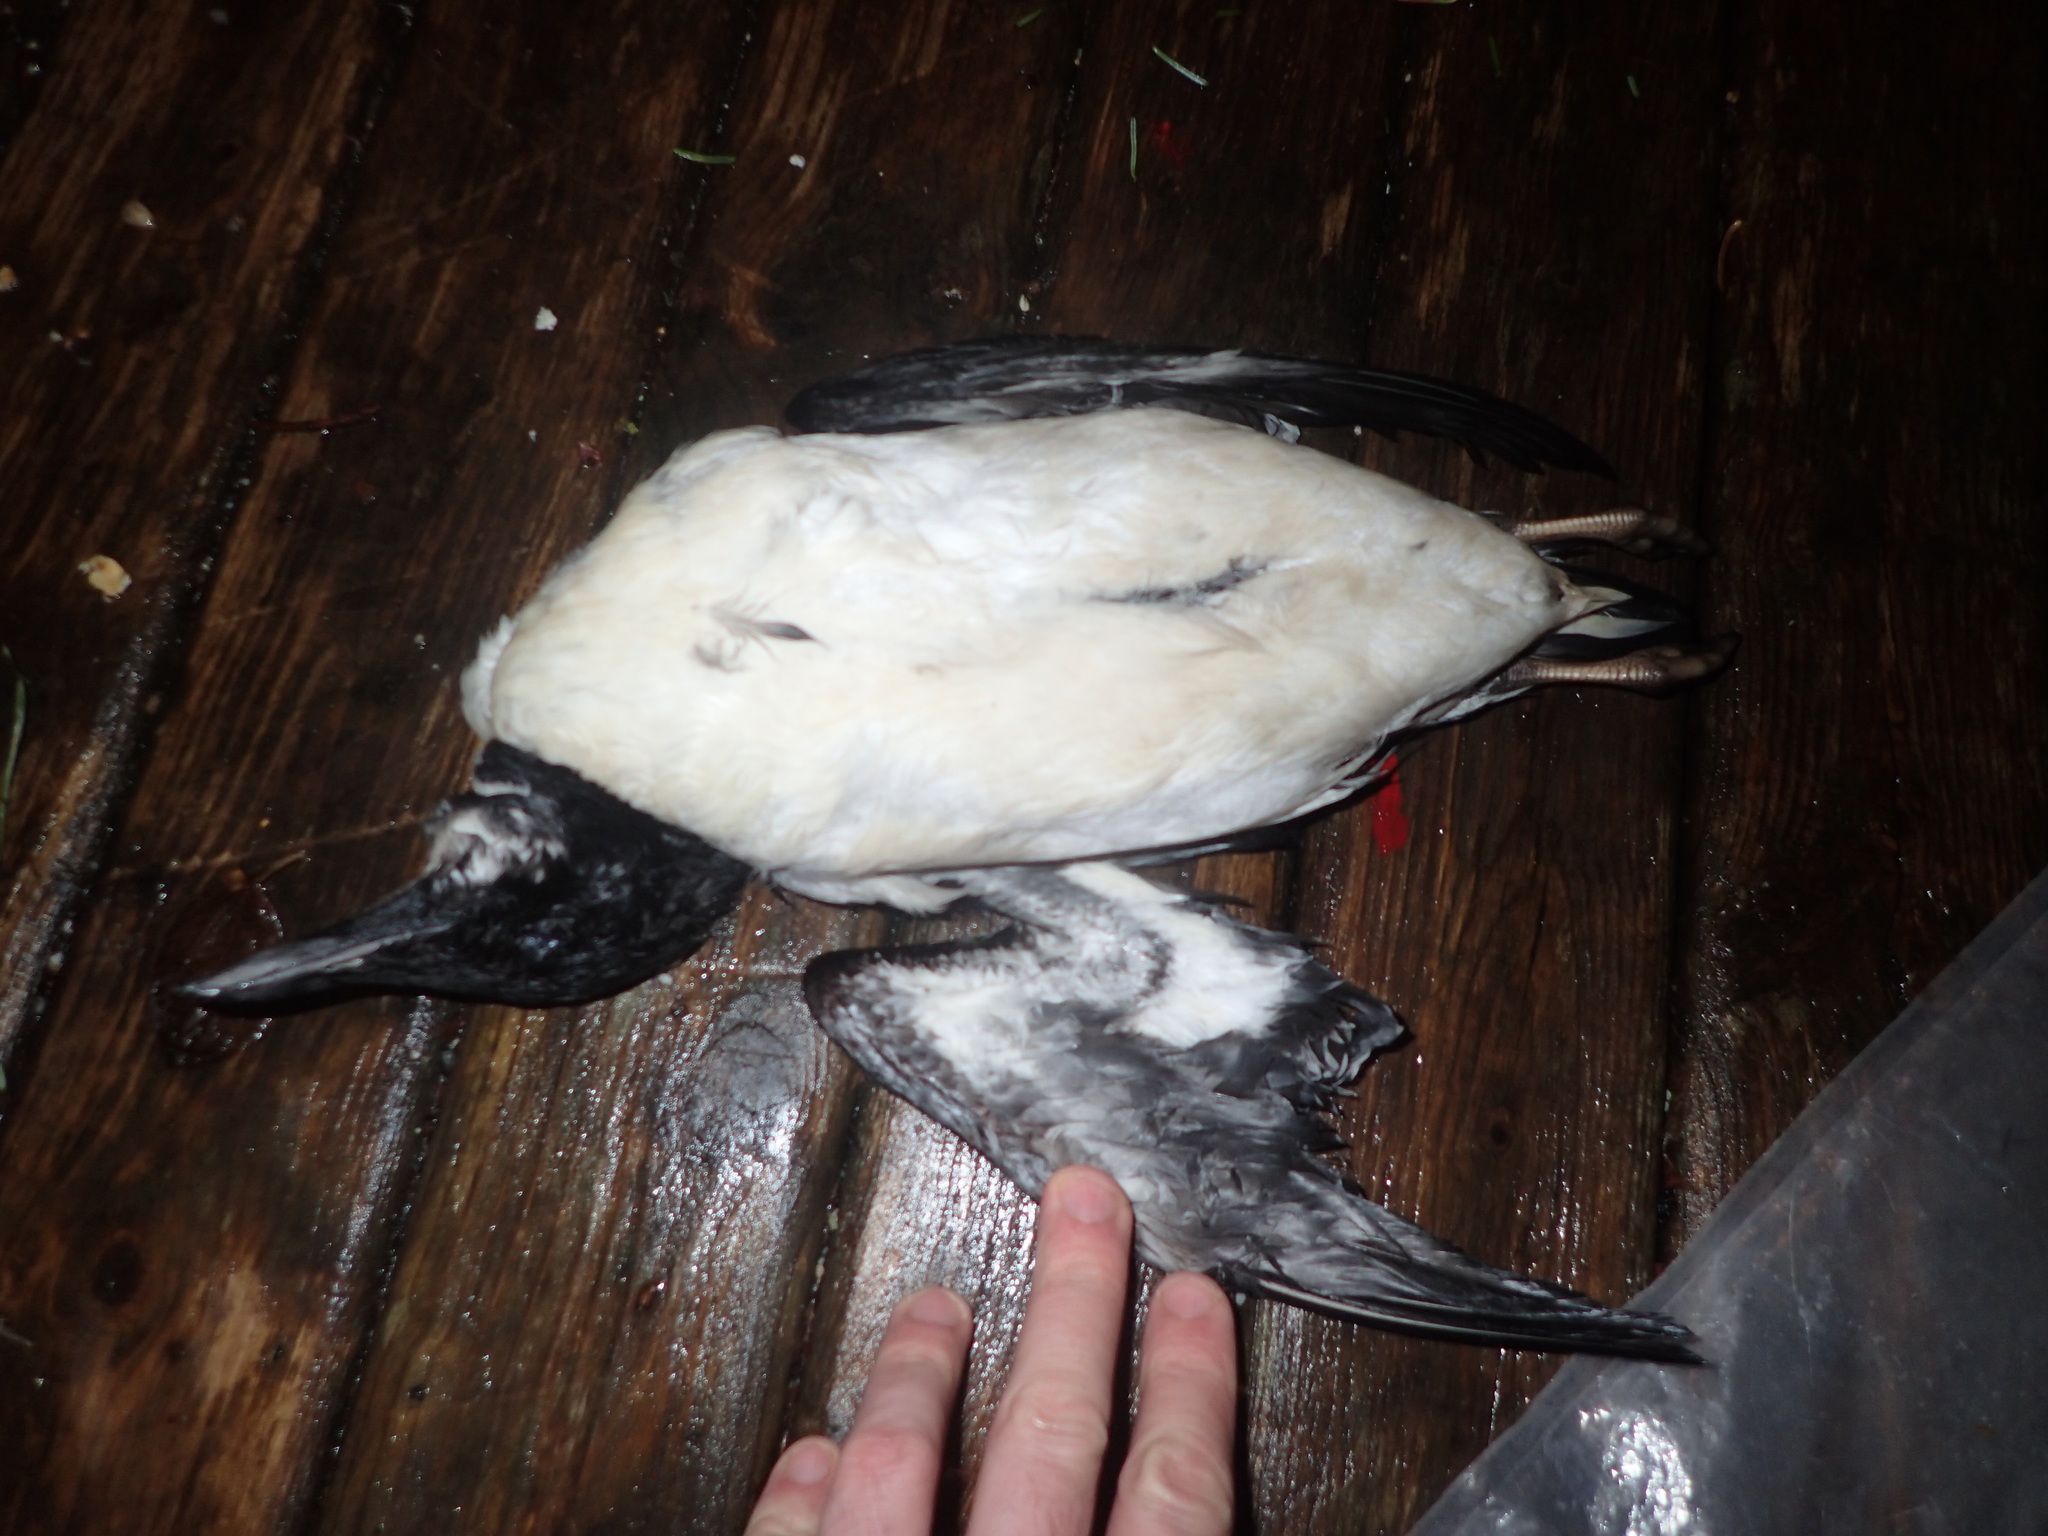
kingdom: Animalia
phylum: Chordata
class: Aves
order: Charadriiformes
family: Alcidae
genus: Uria
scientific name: Uria lomvia
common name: Thick-billed murre
